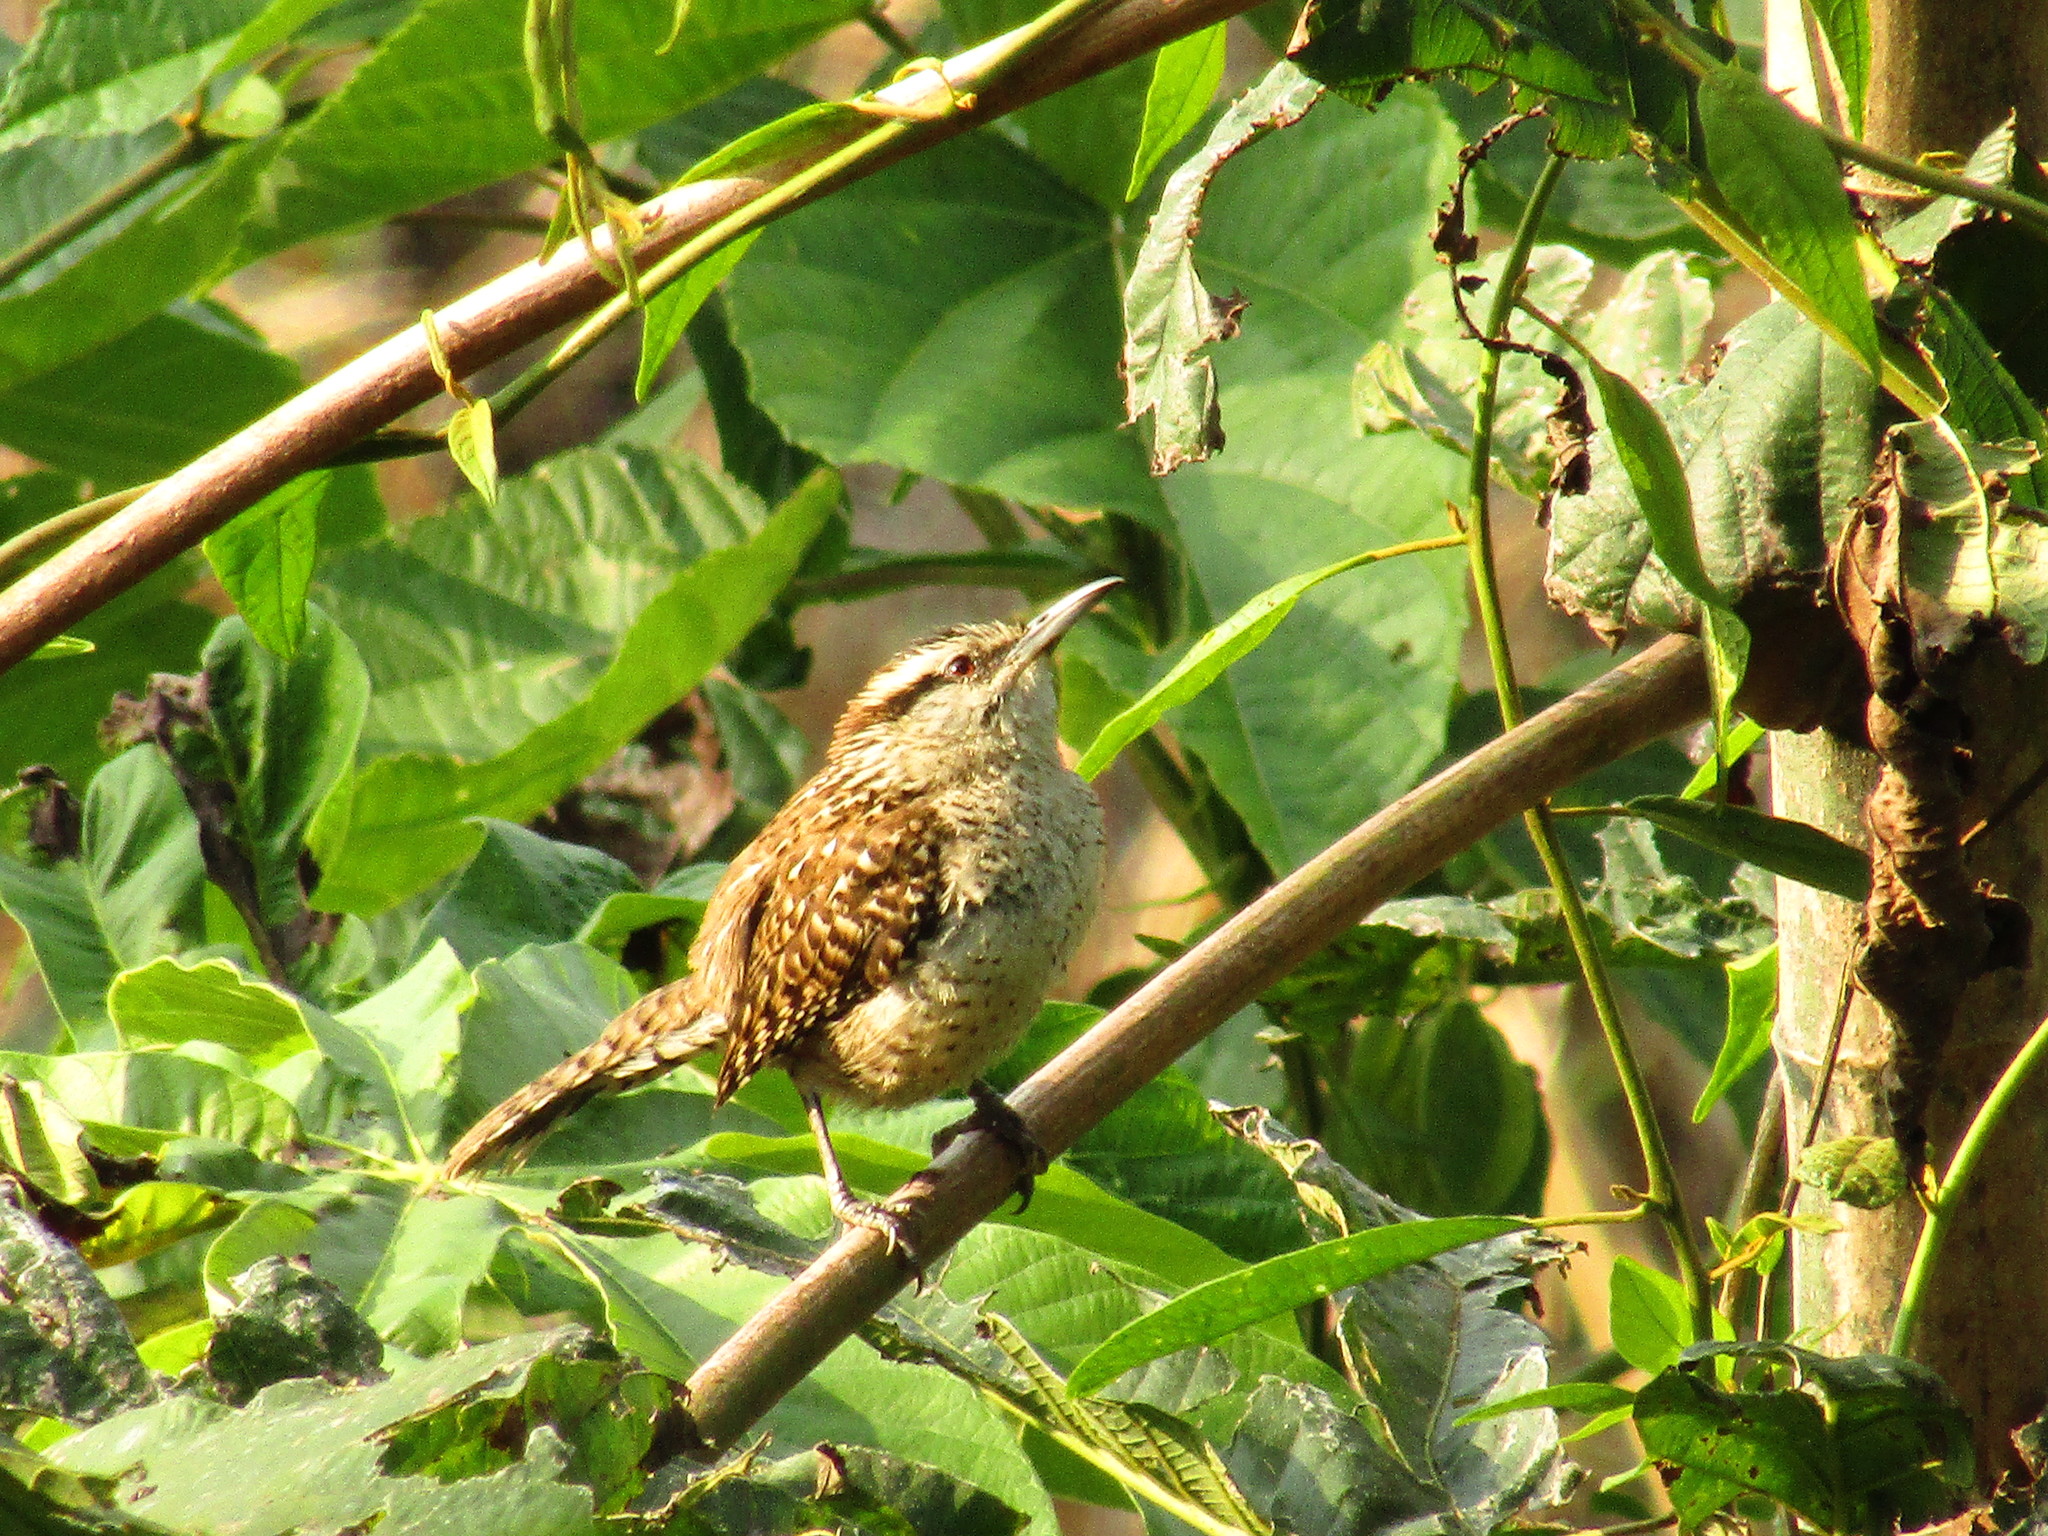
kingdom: Animalia
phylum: Chordata
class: Aves
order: Passeriformes
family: Troglodytidae
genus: Campylorhynchus
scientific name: Campylorhynchus rufinucha
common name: Rufous-naped wren
